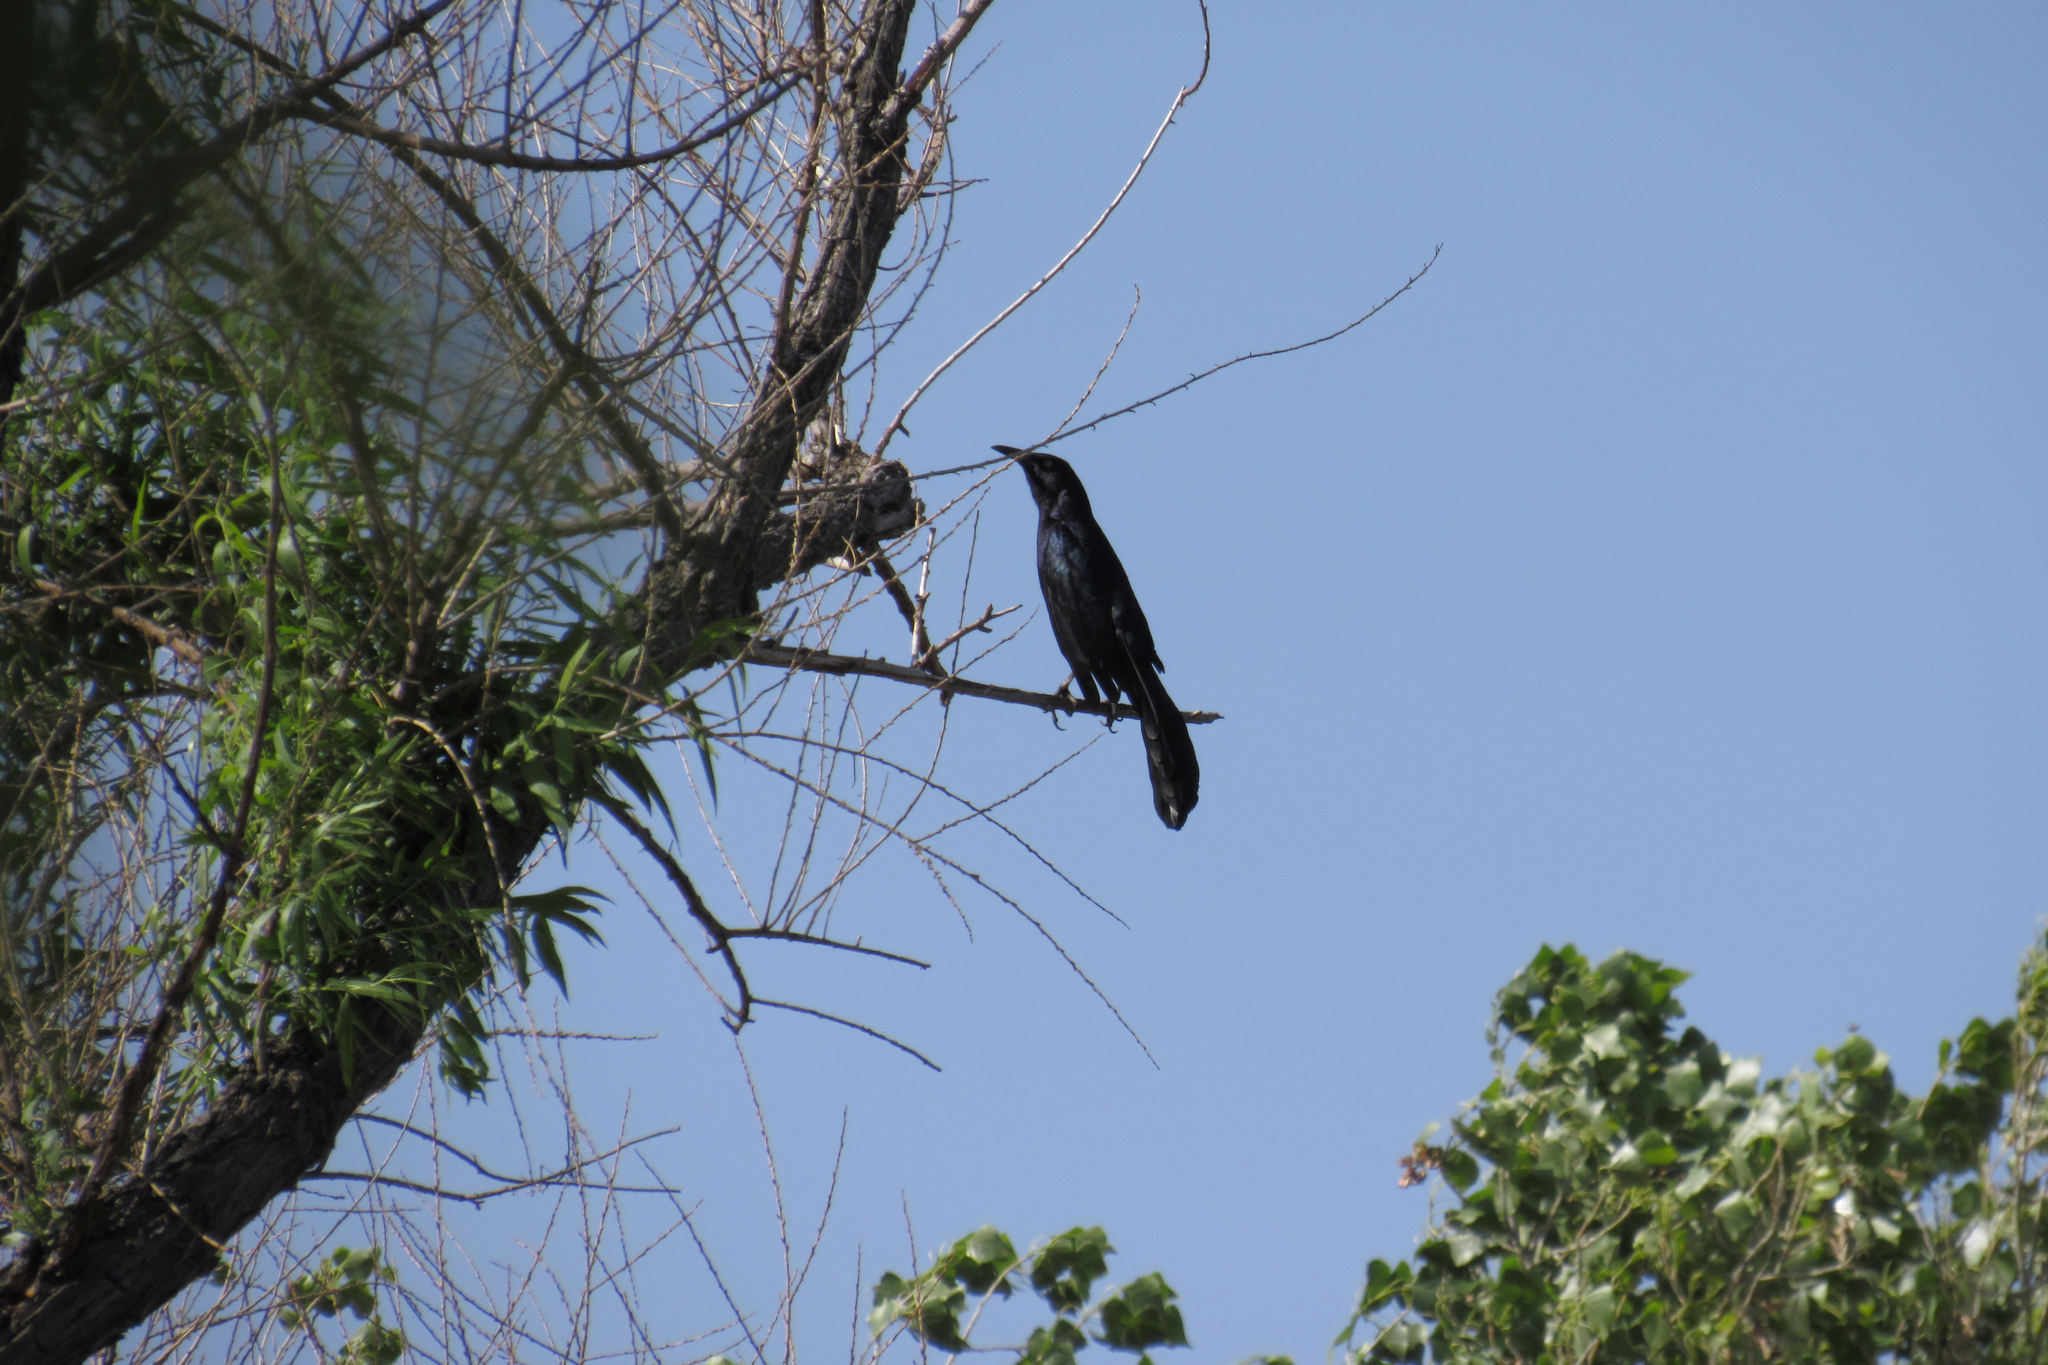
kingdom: Animalia
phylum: Chordata
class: Aves
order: Passeriformes
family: Icteridae
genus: Quiscalus
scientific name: Quiscalus mexicanus
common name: Great-tailed grackle
